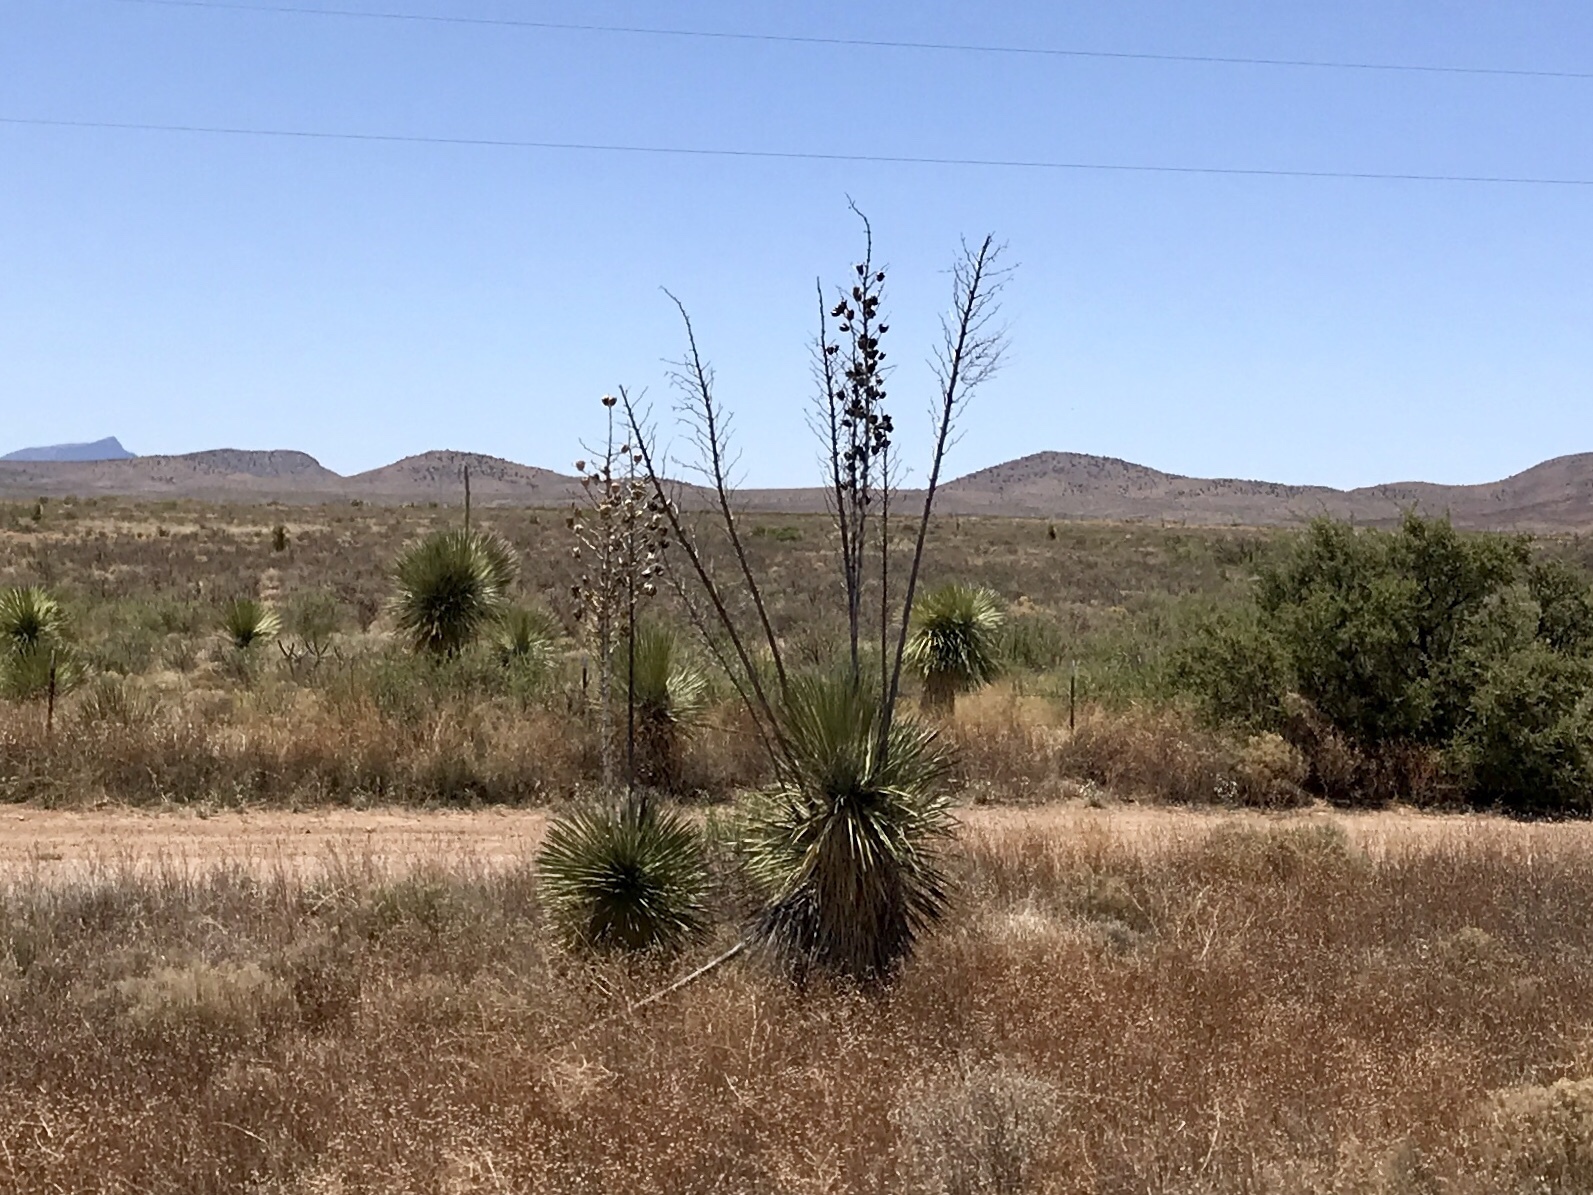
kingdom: Plantae
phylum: Tracheophyta
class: Liliopsida
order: Asparagales
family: Asparagaceae
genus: Yucca
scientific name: Yucca elata
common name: Palmella
